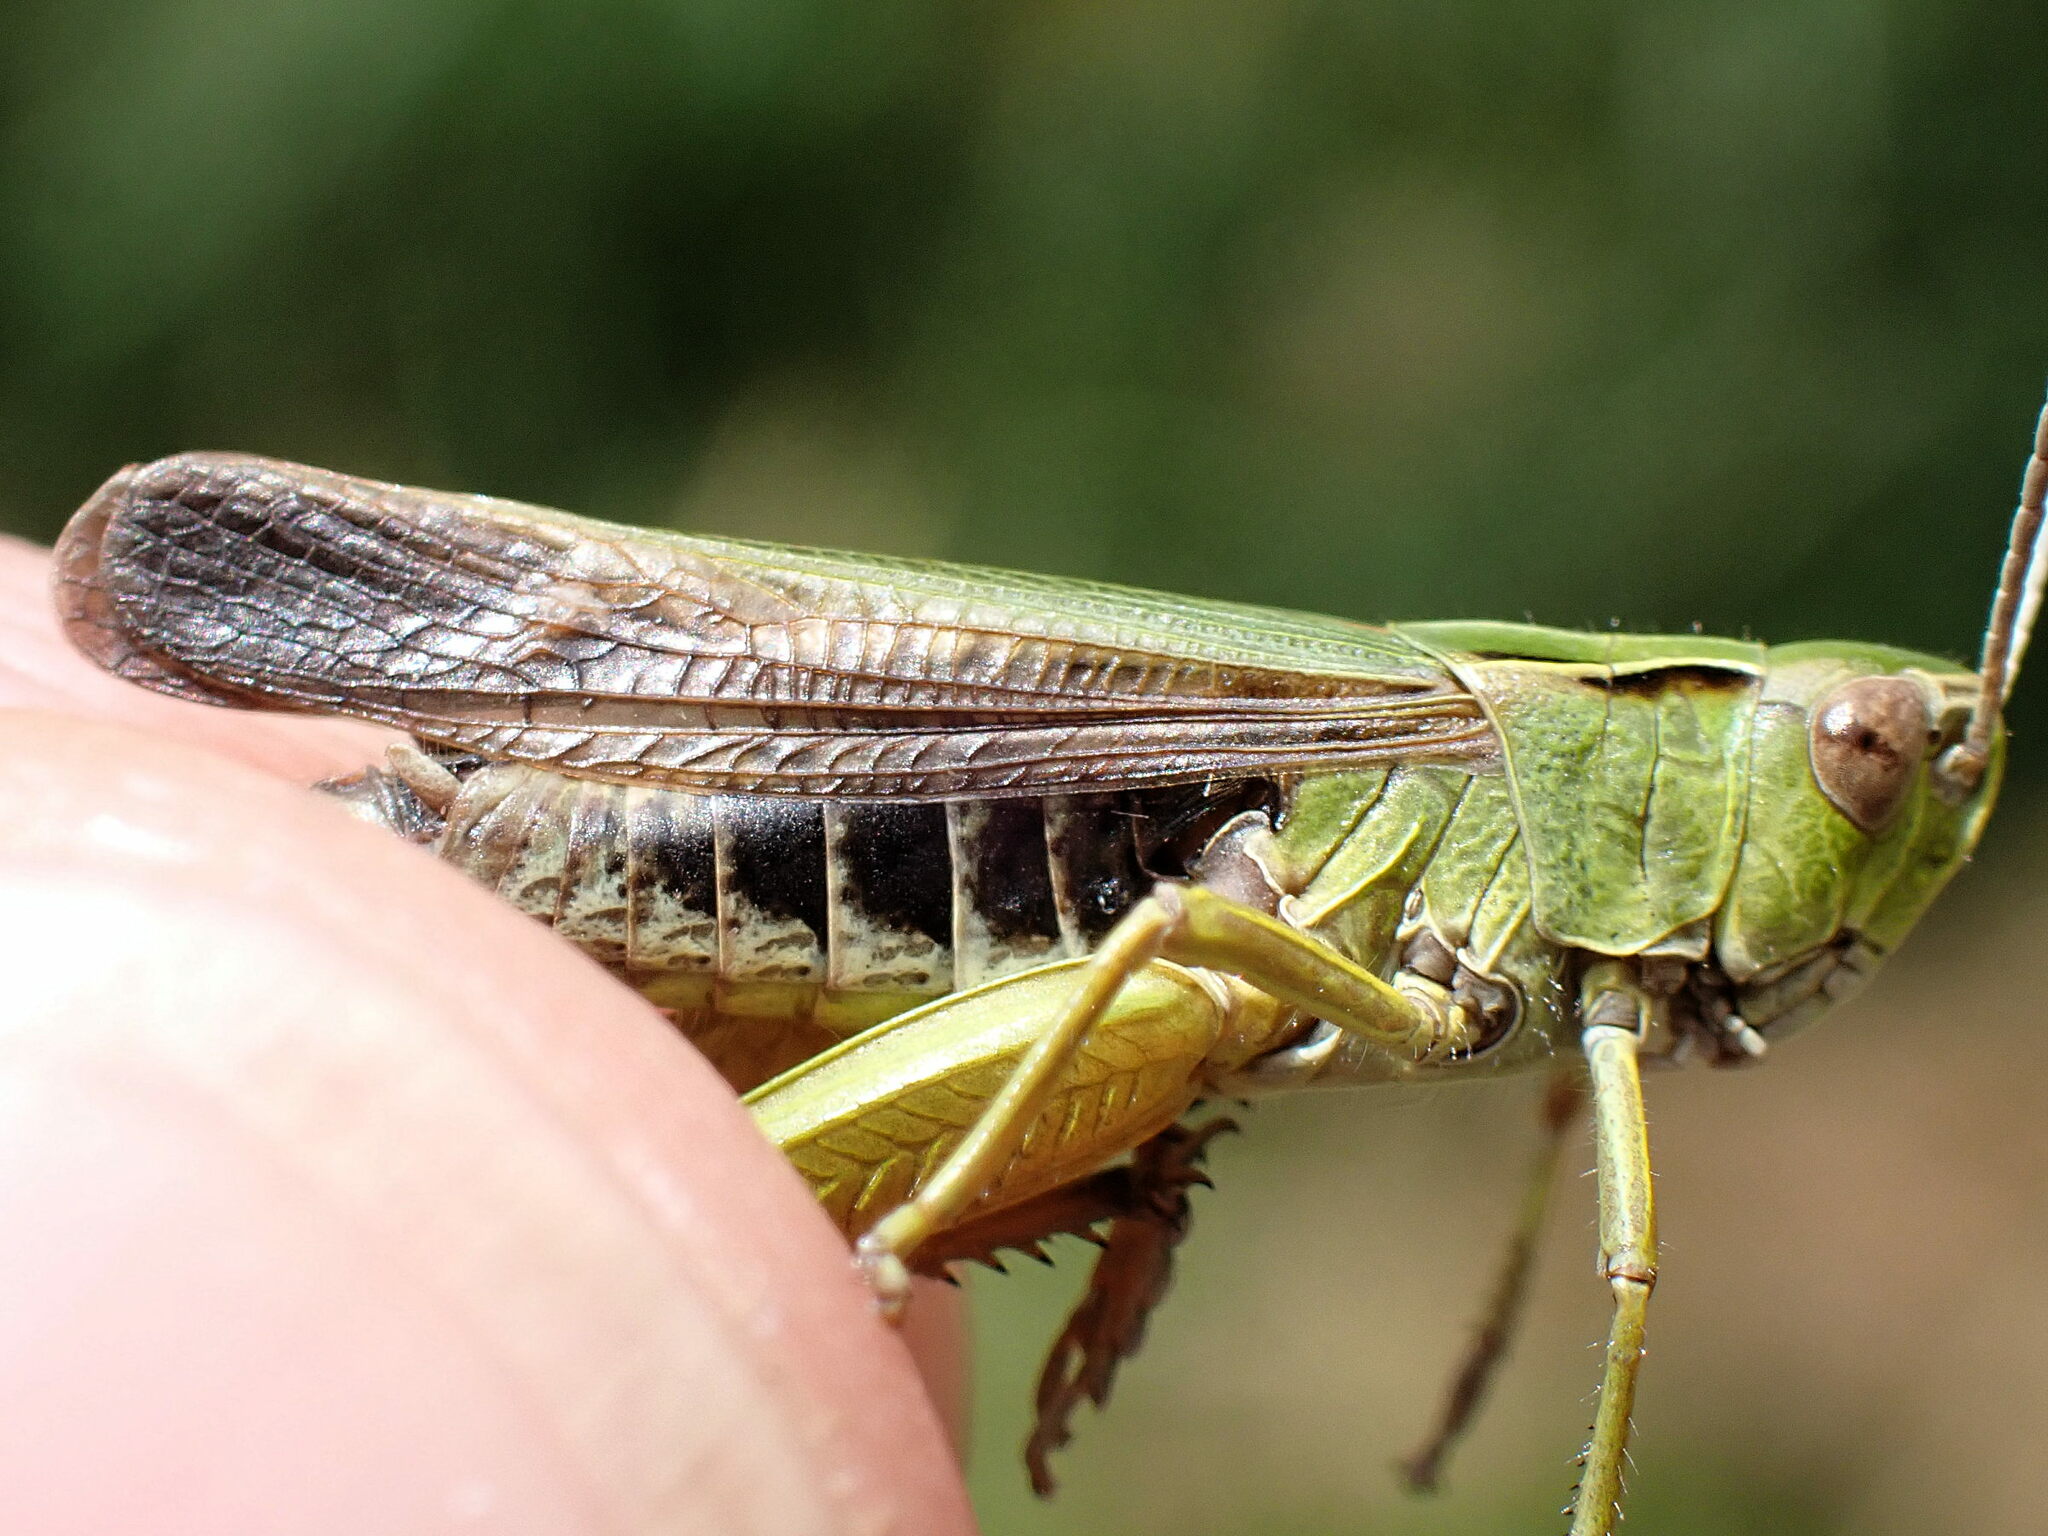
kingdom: Animalia
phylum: Arthropoda
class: Insecta
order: Orthoptera
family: Acrididae
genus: Omocestus
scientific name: Omocestus viridulus
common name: Common green grasshopper
